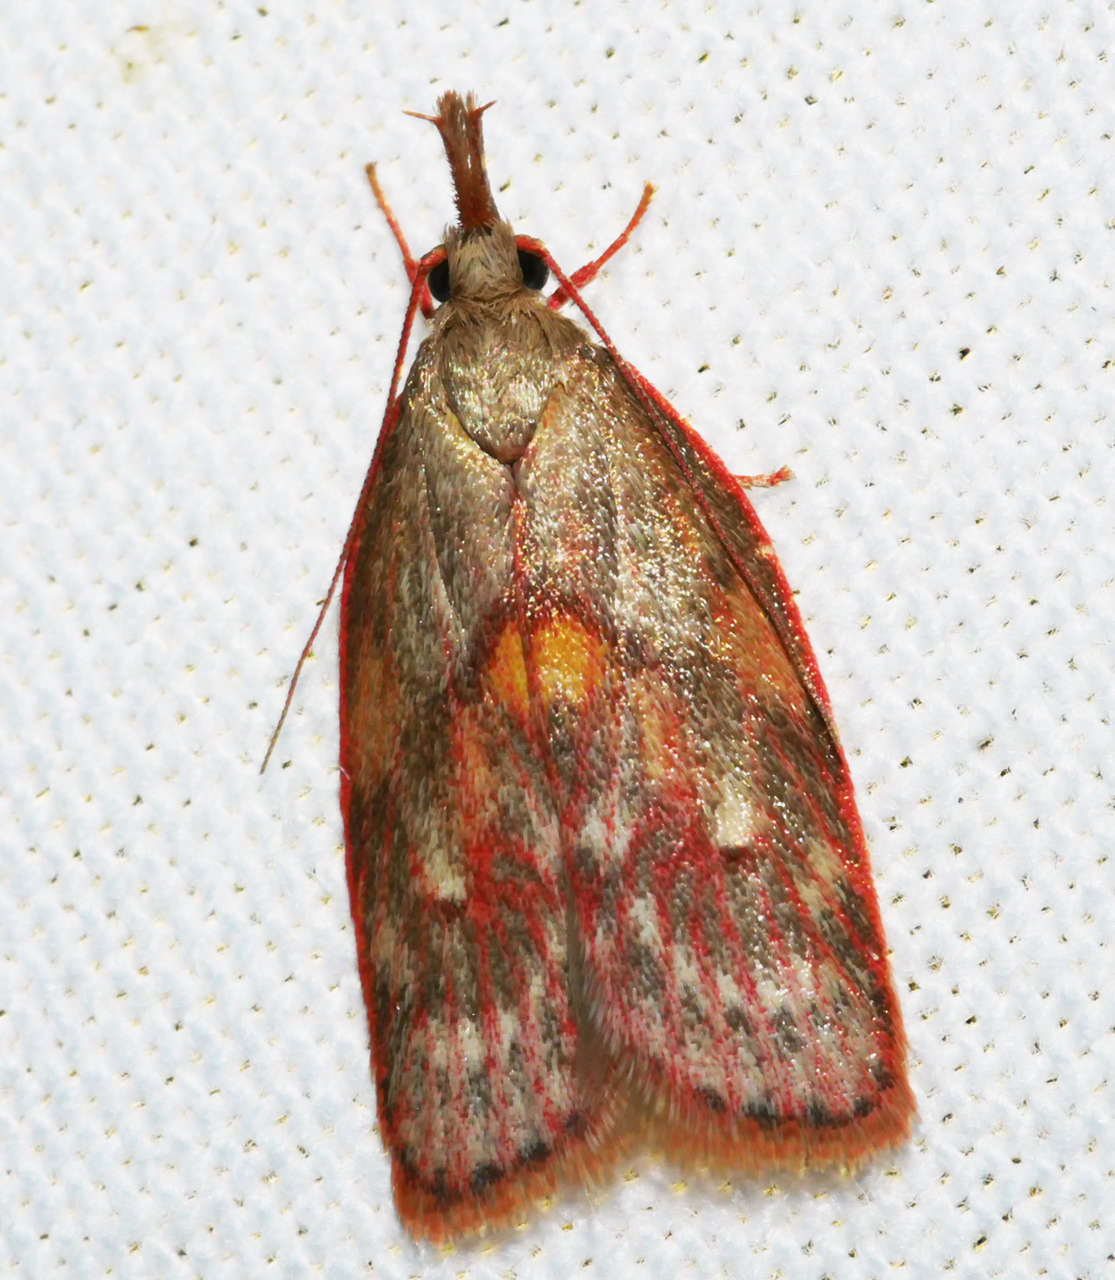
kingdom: Animalia
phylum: Arthropoda
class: Insecta
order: Lepidoptera
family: Depressariidae
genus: Enchocrates
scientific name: Enchocrates glaucopis
